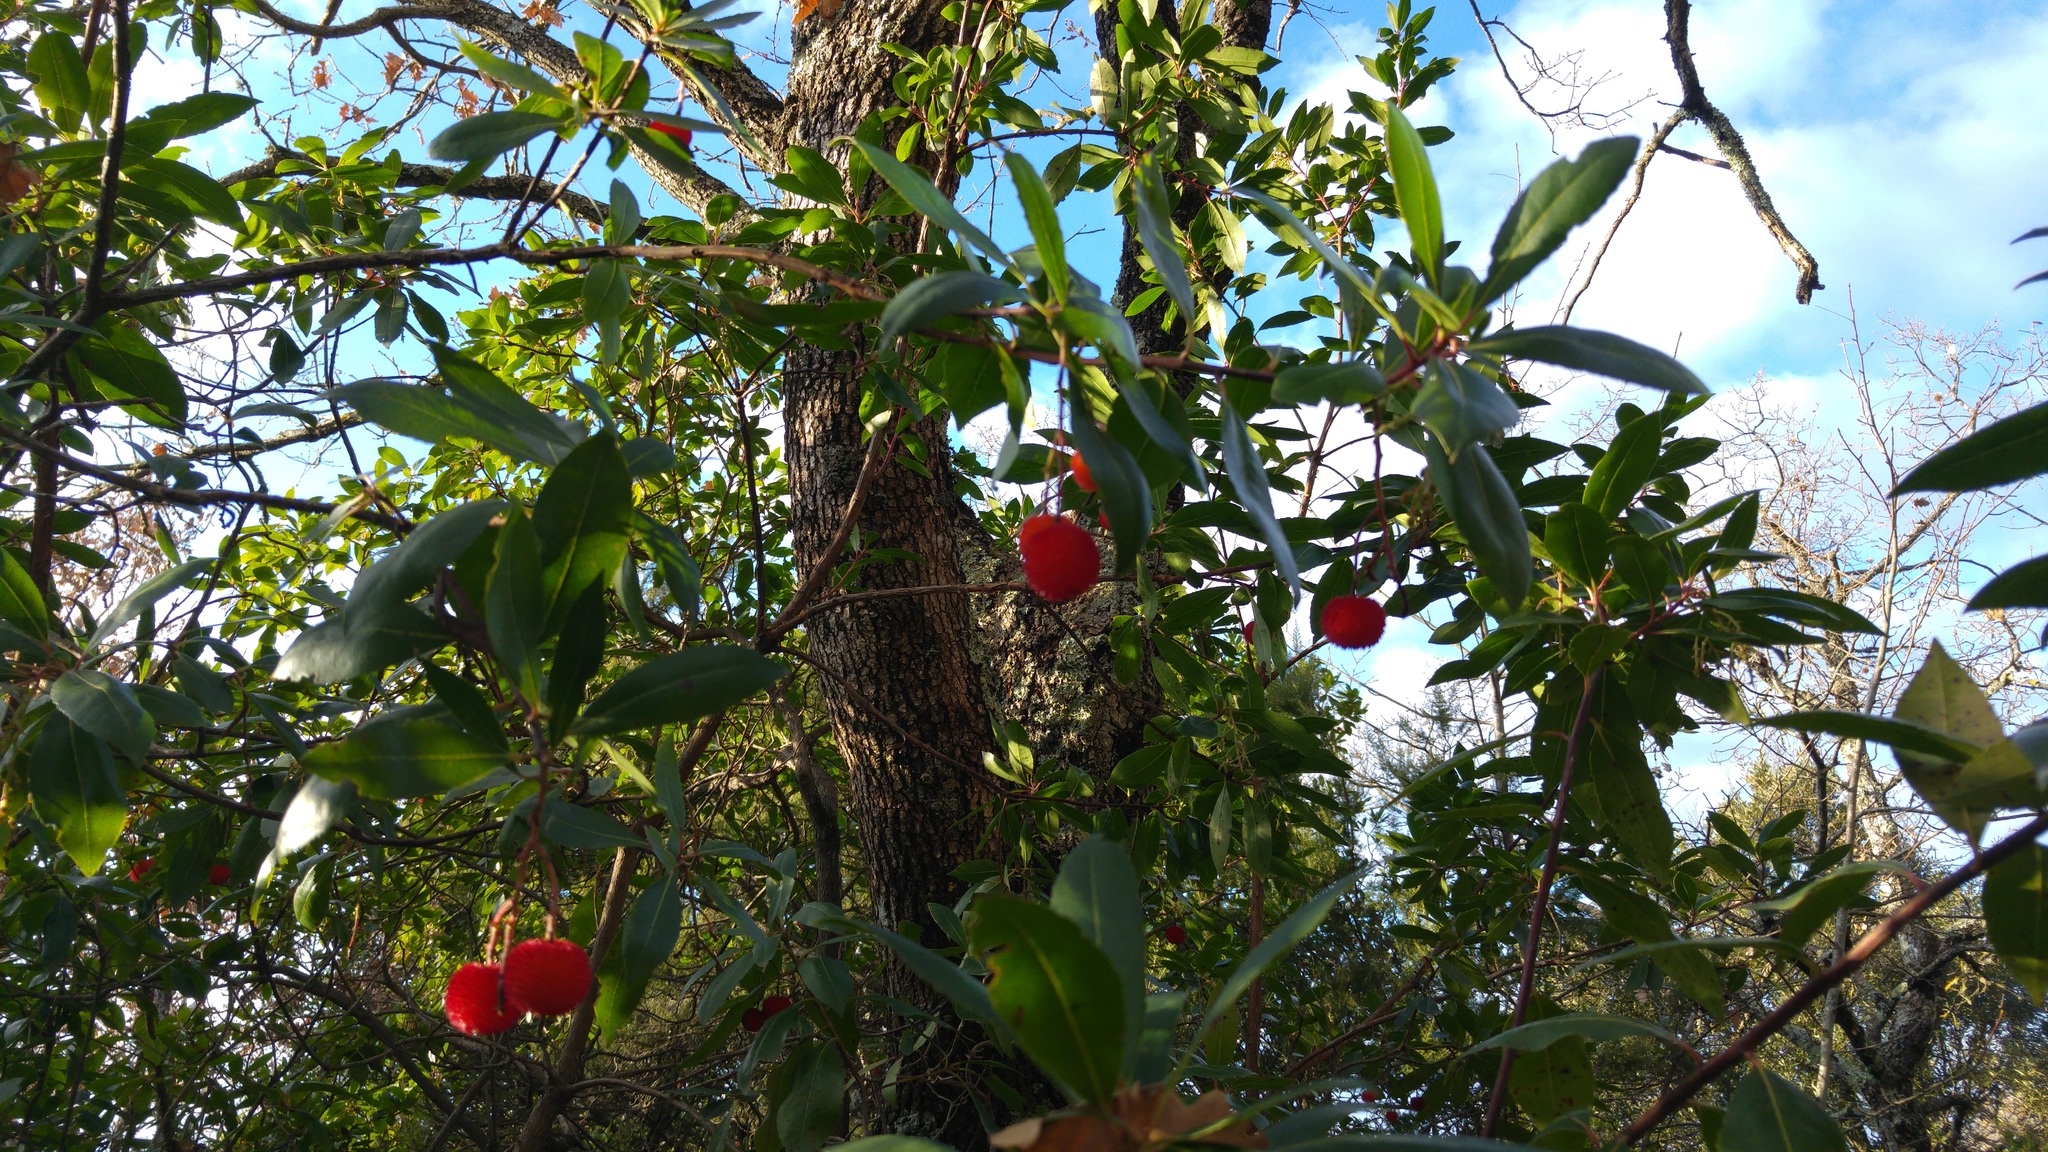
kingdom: Plantae
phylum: Tracheophyta
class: Magnoliopsida
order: Ericales
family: Ericaceae
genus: Arbutus
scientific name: Arbutus unedo
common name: Strawberry-tree
